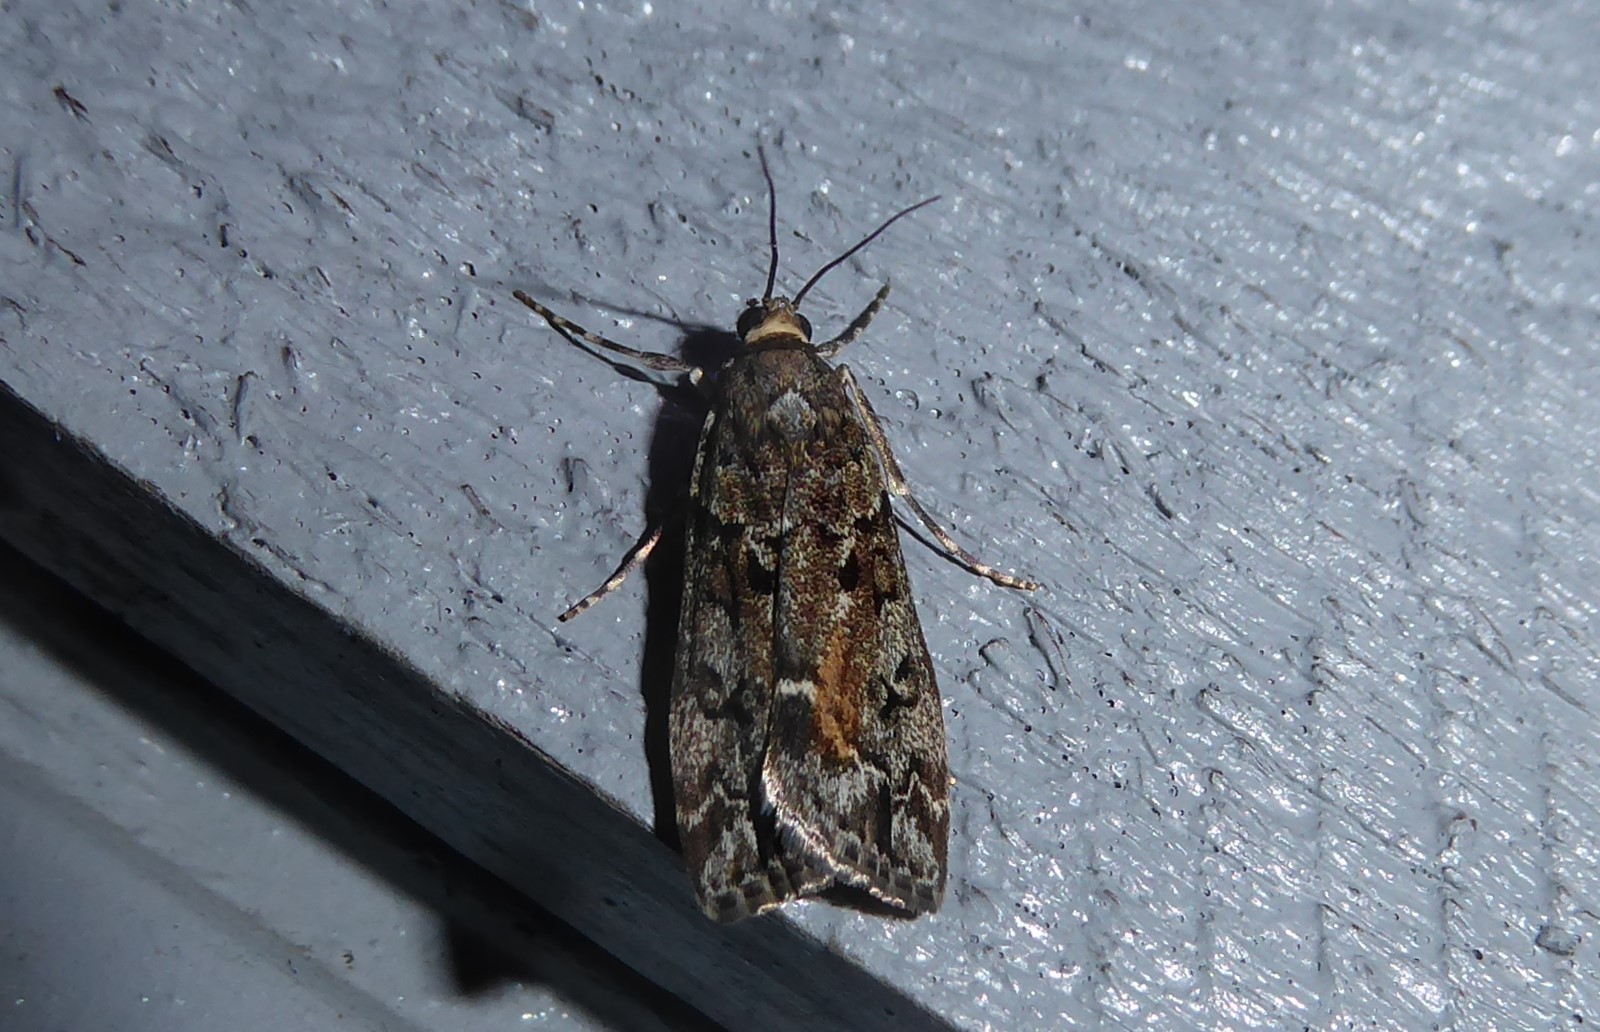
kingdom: Animalia
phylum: Arthropoda
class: Insecta
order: Lepidoptera
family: Crambidae
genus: Eudonia
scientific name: Eudonia submarginalis
